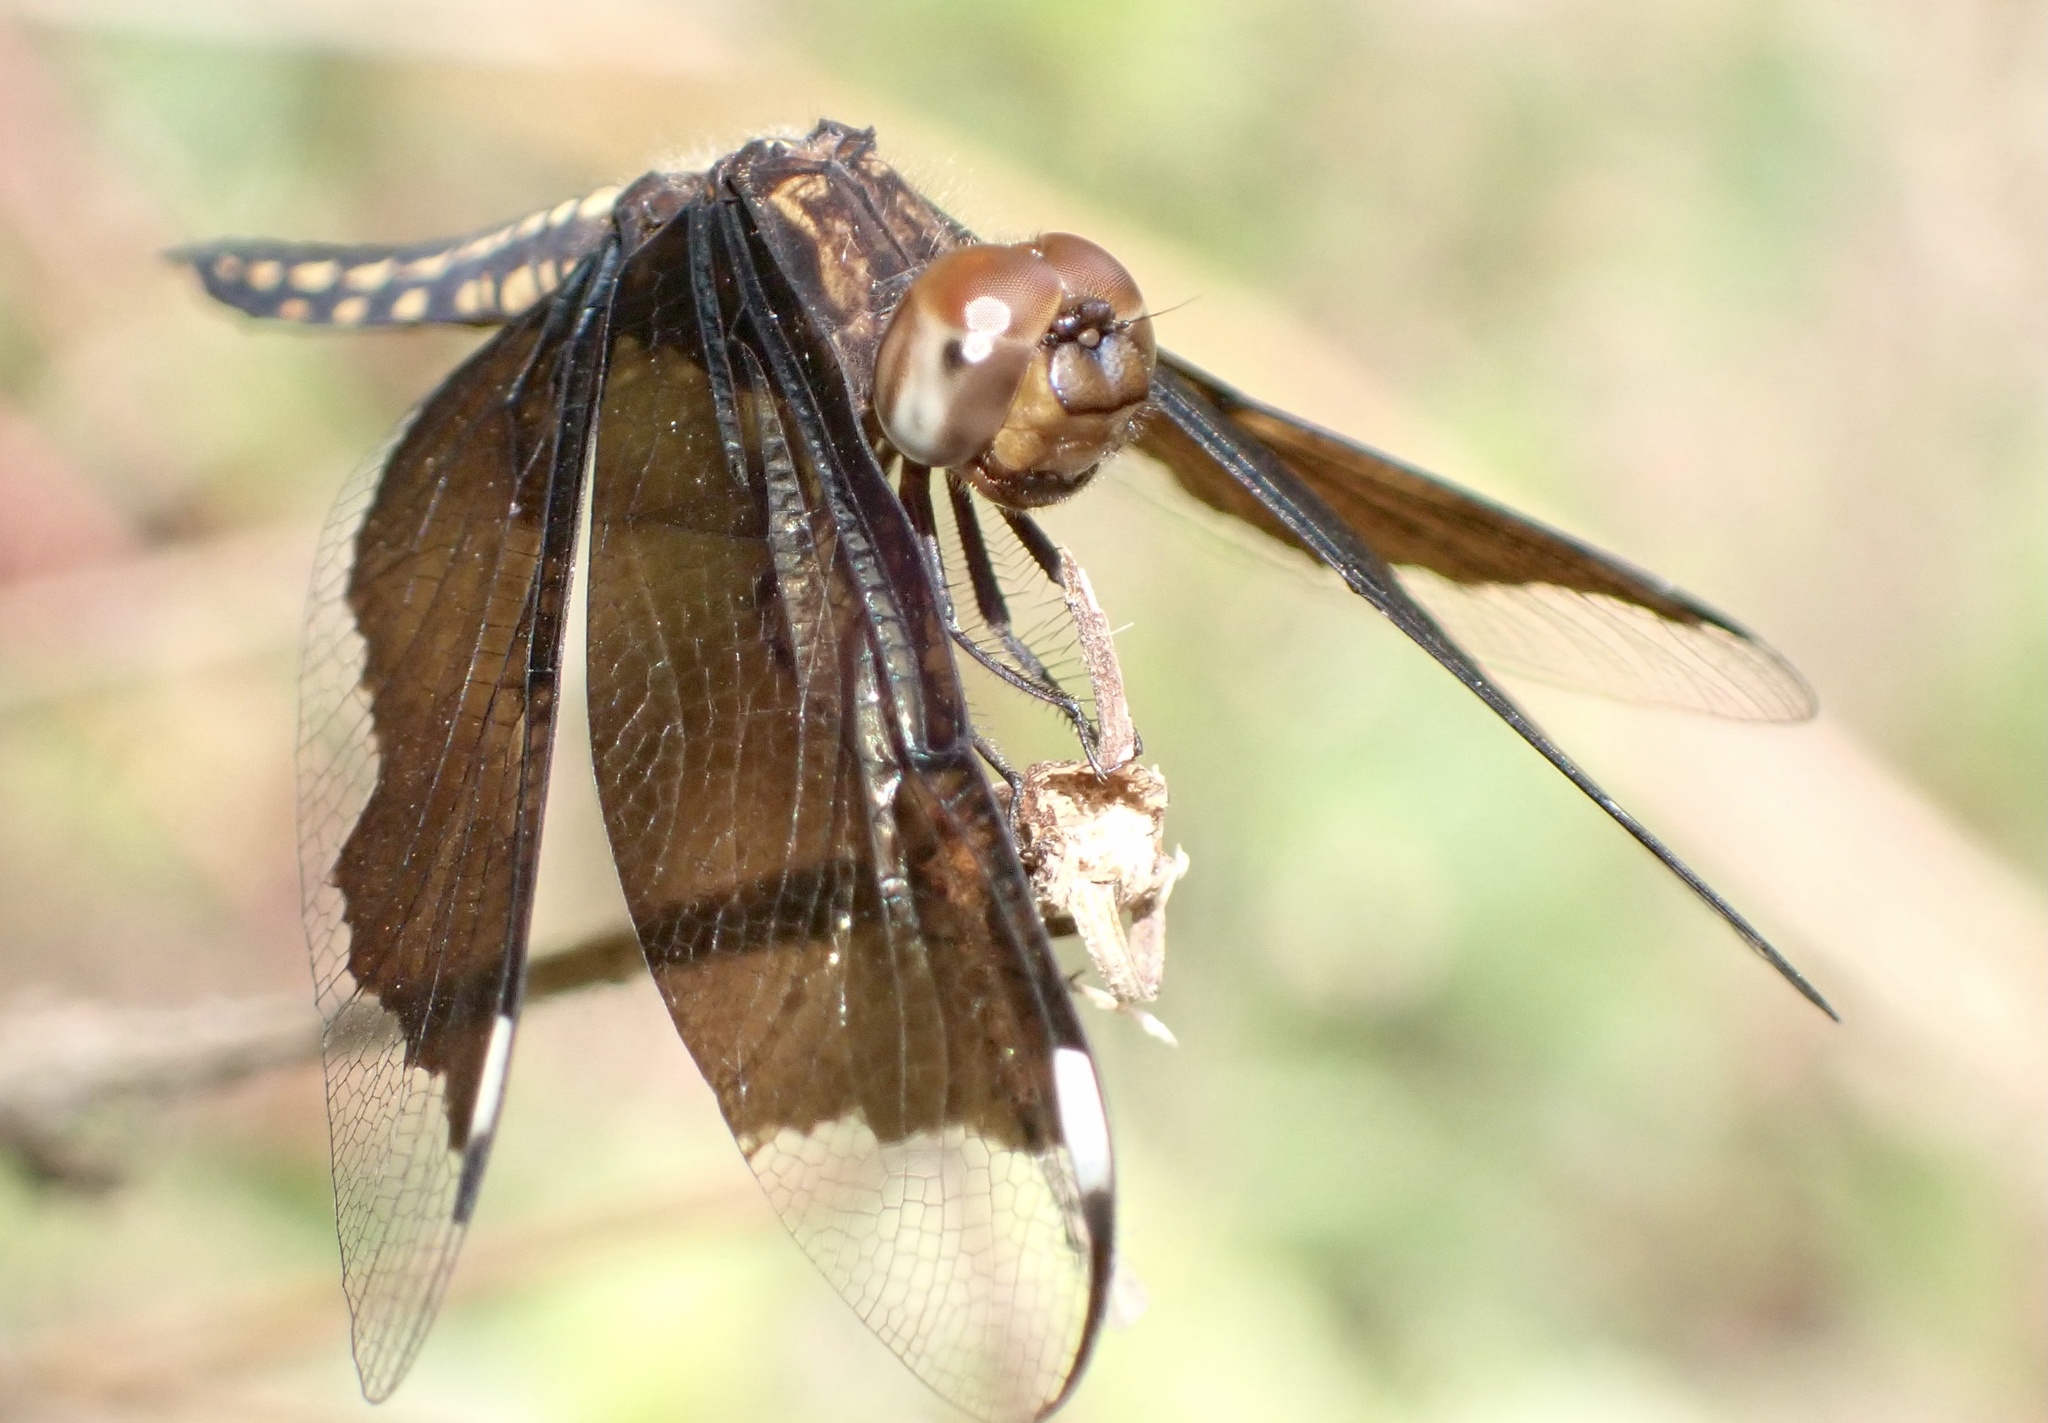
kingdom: Animalia
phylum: Arthropoda
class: Insecta
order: Odonata
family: Libellulidae
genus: Palpopleura
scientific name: Palpopleura lucia
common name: Lucia widow
